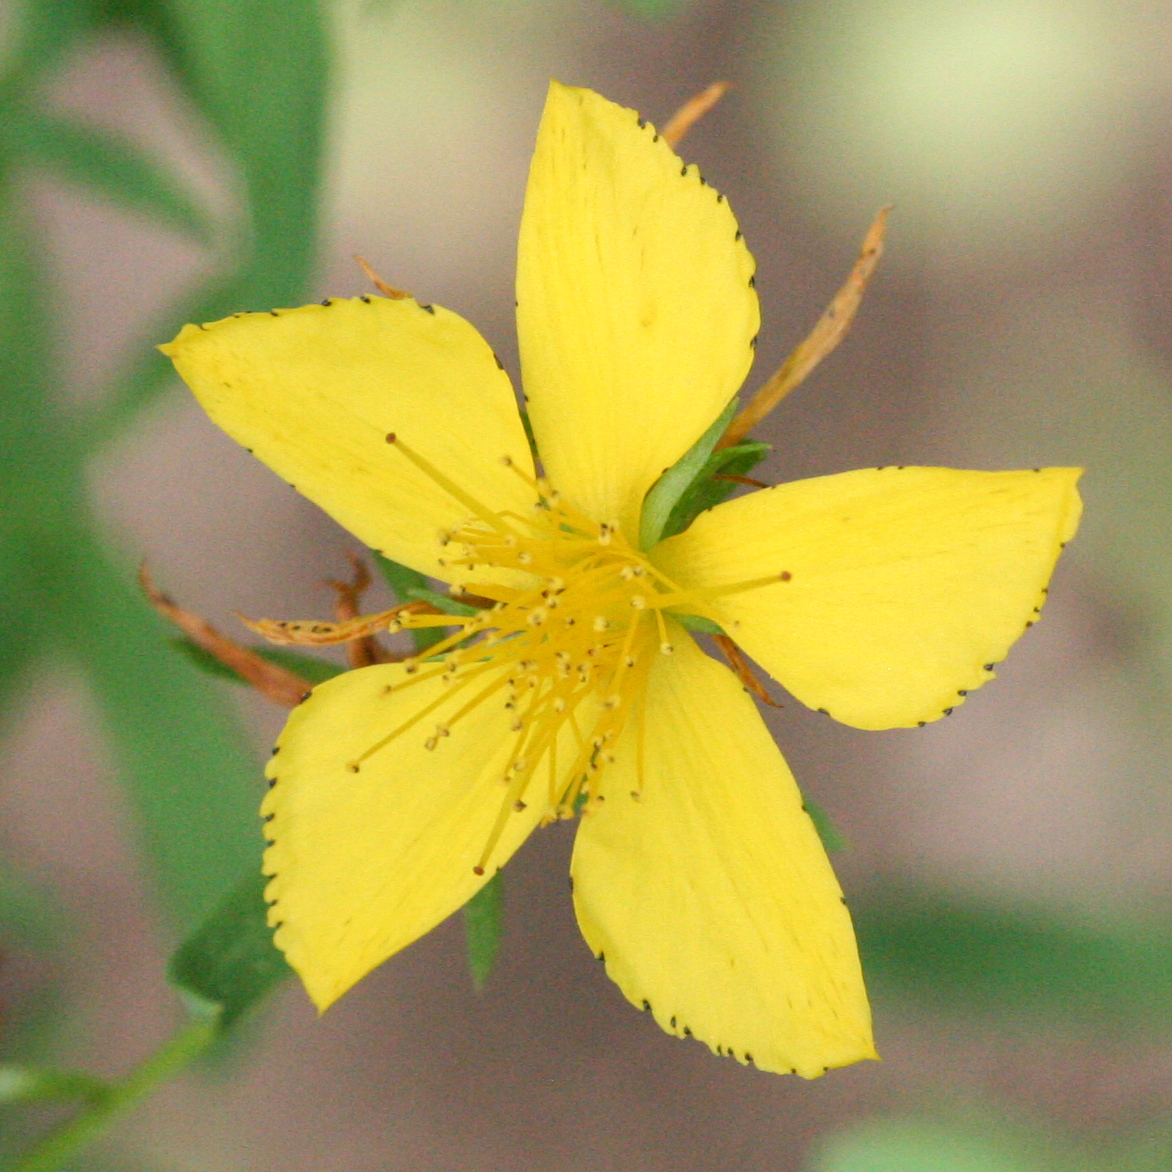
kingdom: Plantae
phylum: Tracheophyta
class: Magnoliopsida
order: Malpighiales
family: Hypericaceae
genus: Hypericum
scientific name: Hypericum perforatum
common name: Common st. johnswort
